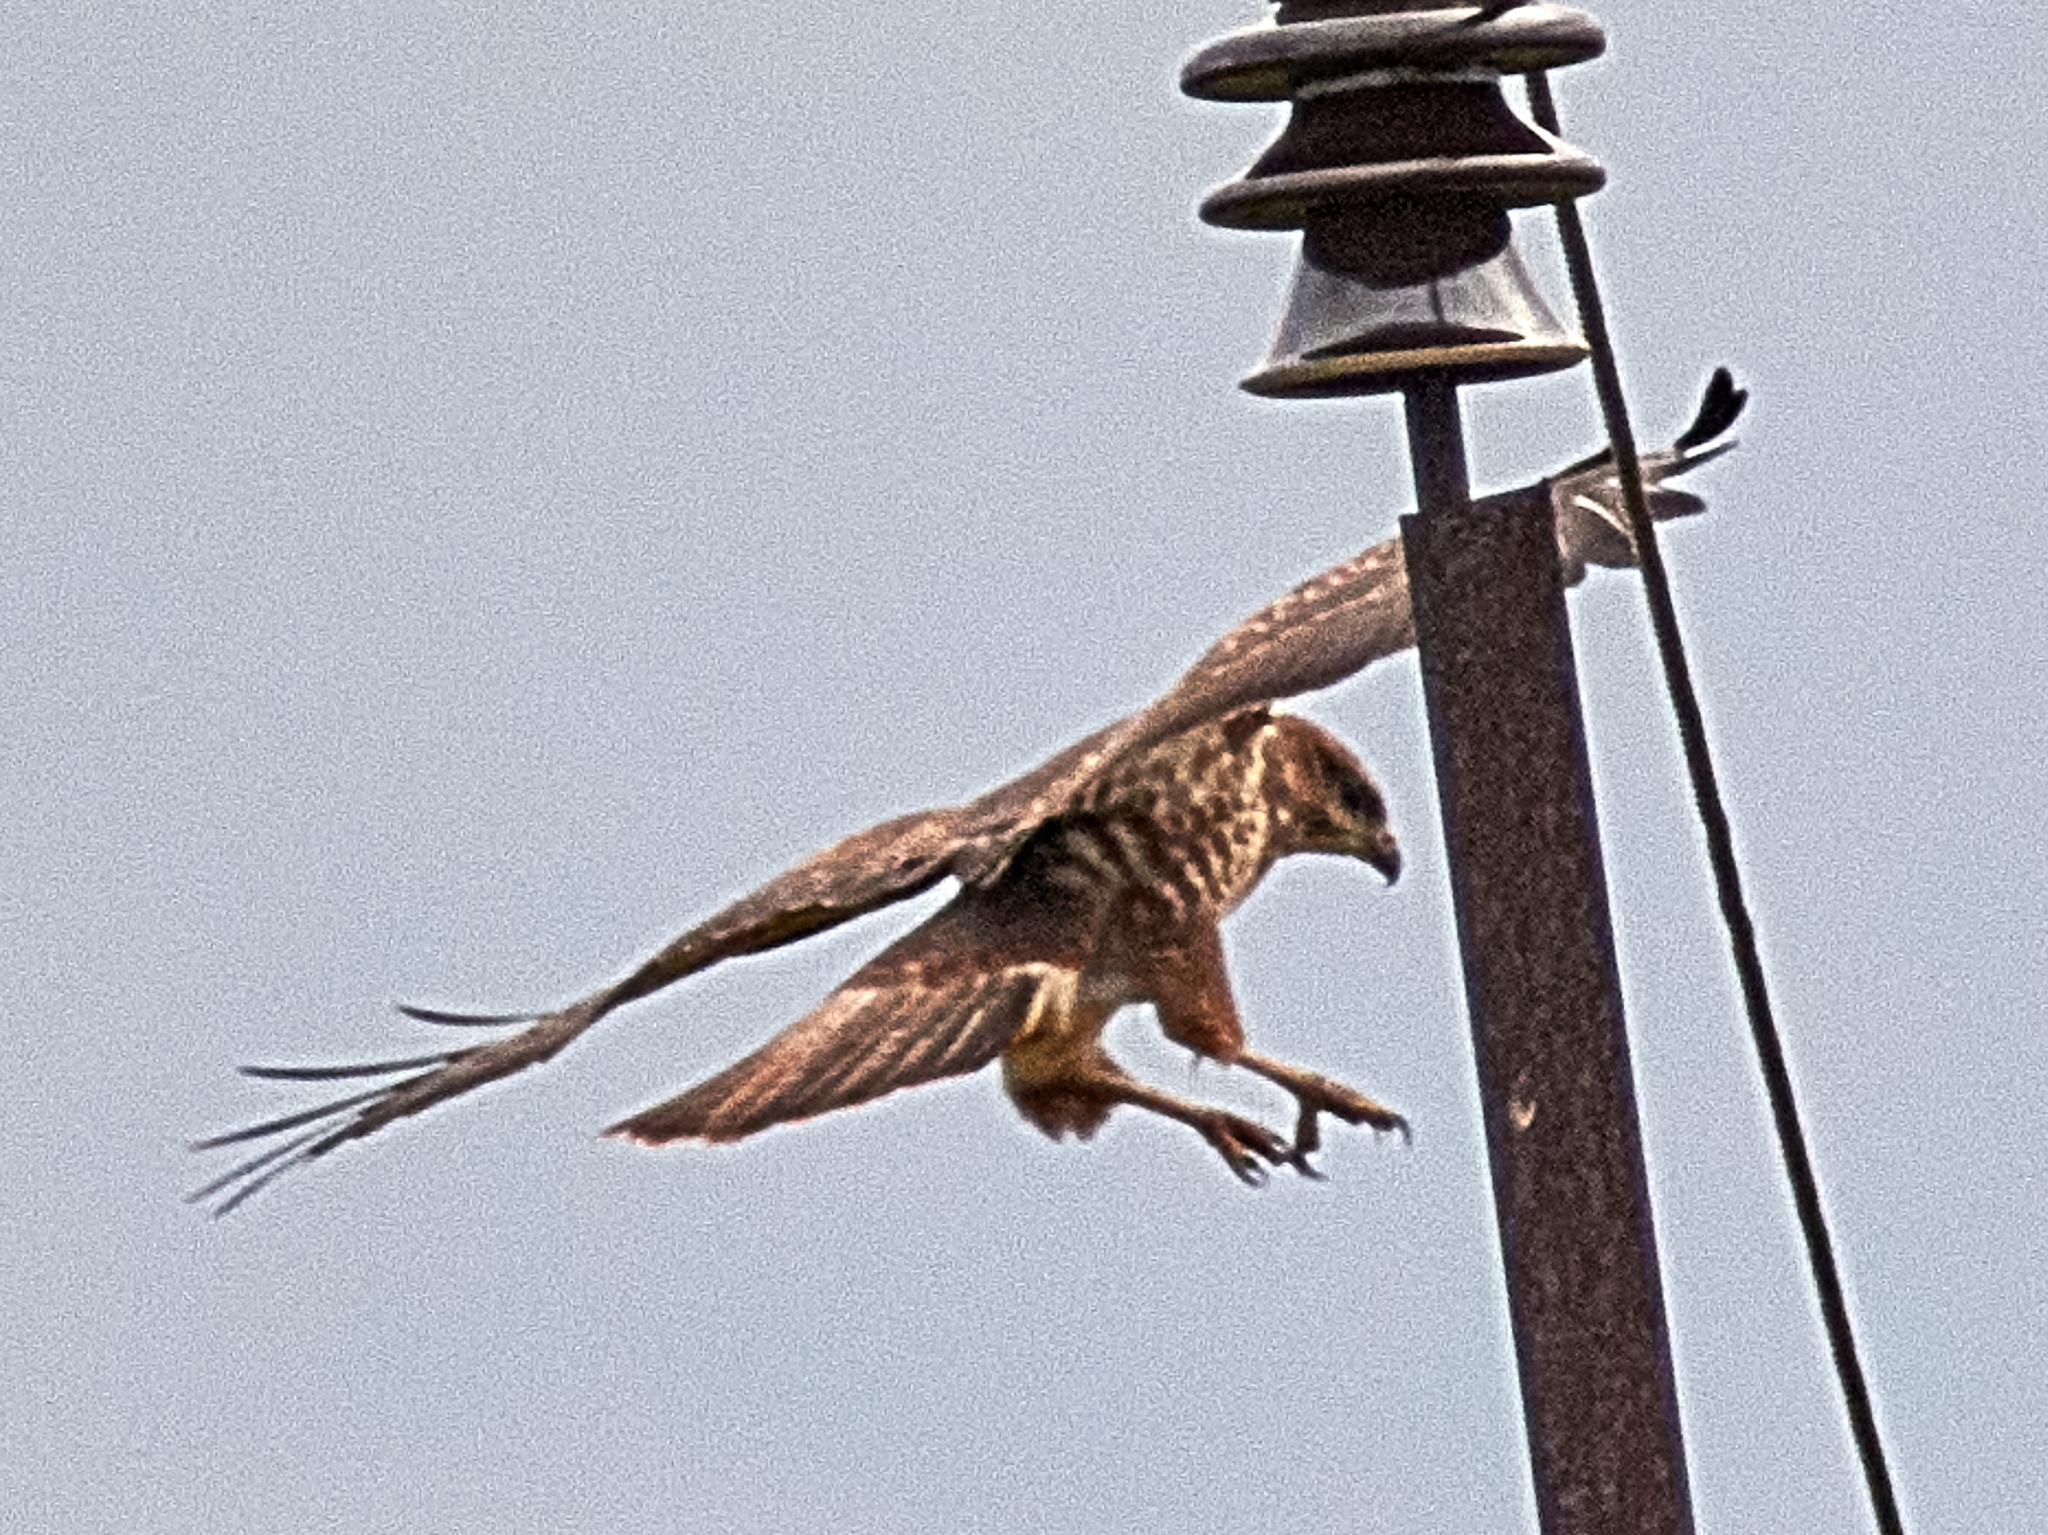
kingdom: Animalia
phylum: Chordata
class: Aves
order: Accipitriformes
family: Accipitridae
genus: Buteo
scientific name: Buteo buteo
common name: Common buzzard
